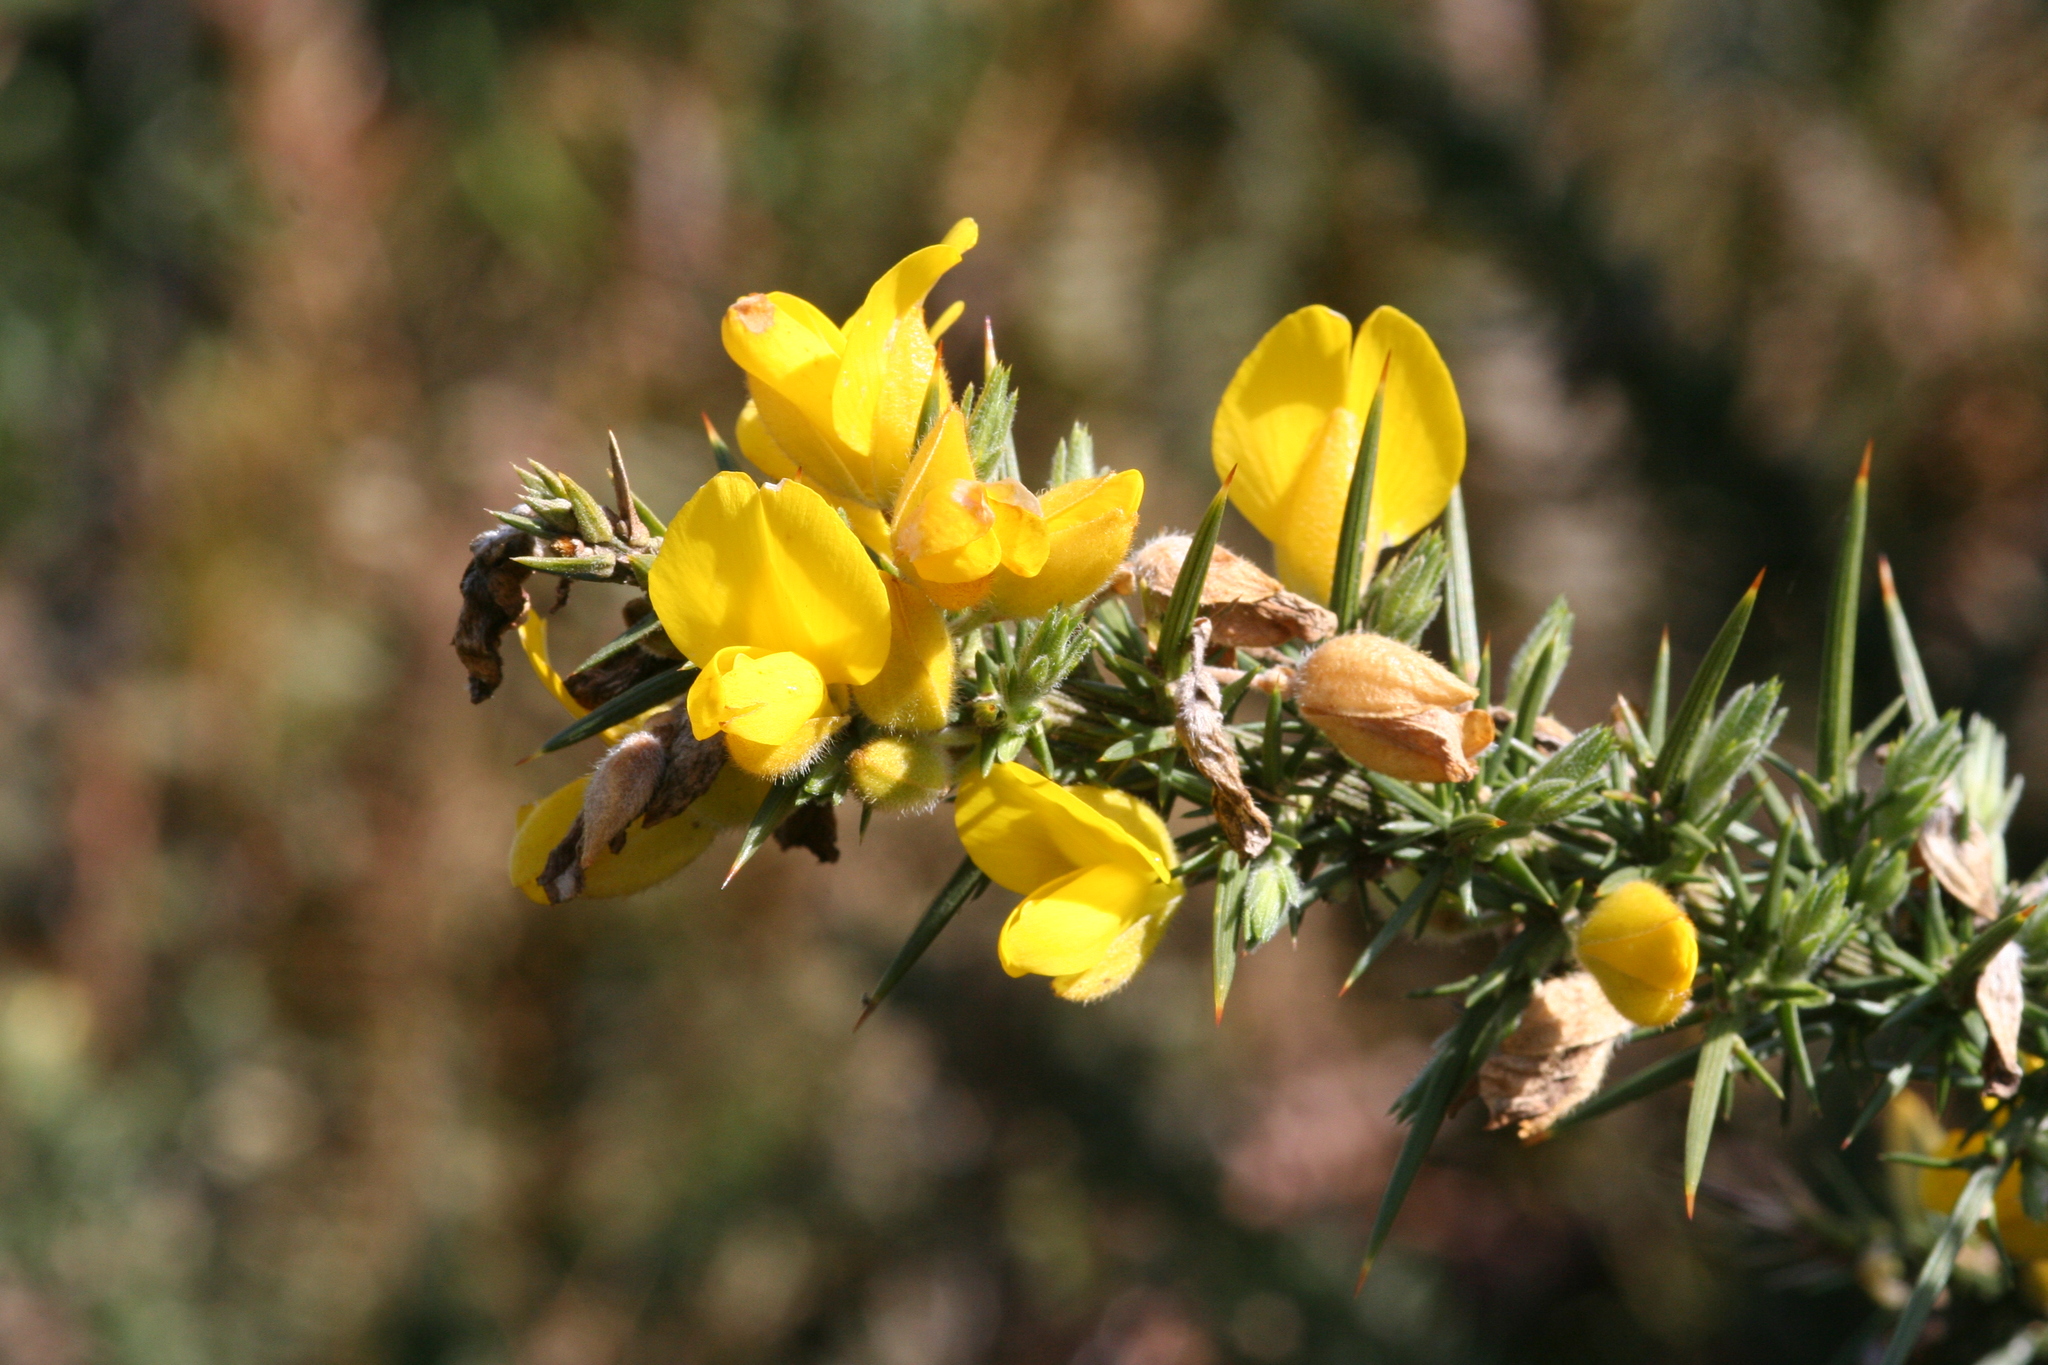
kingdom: Plantae
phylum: Tracheophyta
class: Magnoliopsida
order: Fabales
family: Fabaceae
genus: Ulex
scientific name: Ulex europaeus
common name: Common gorse
